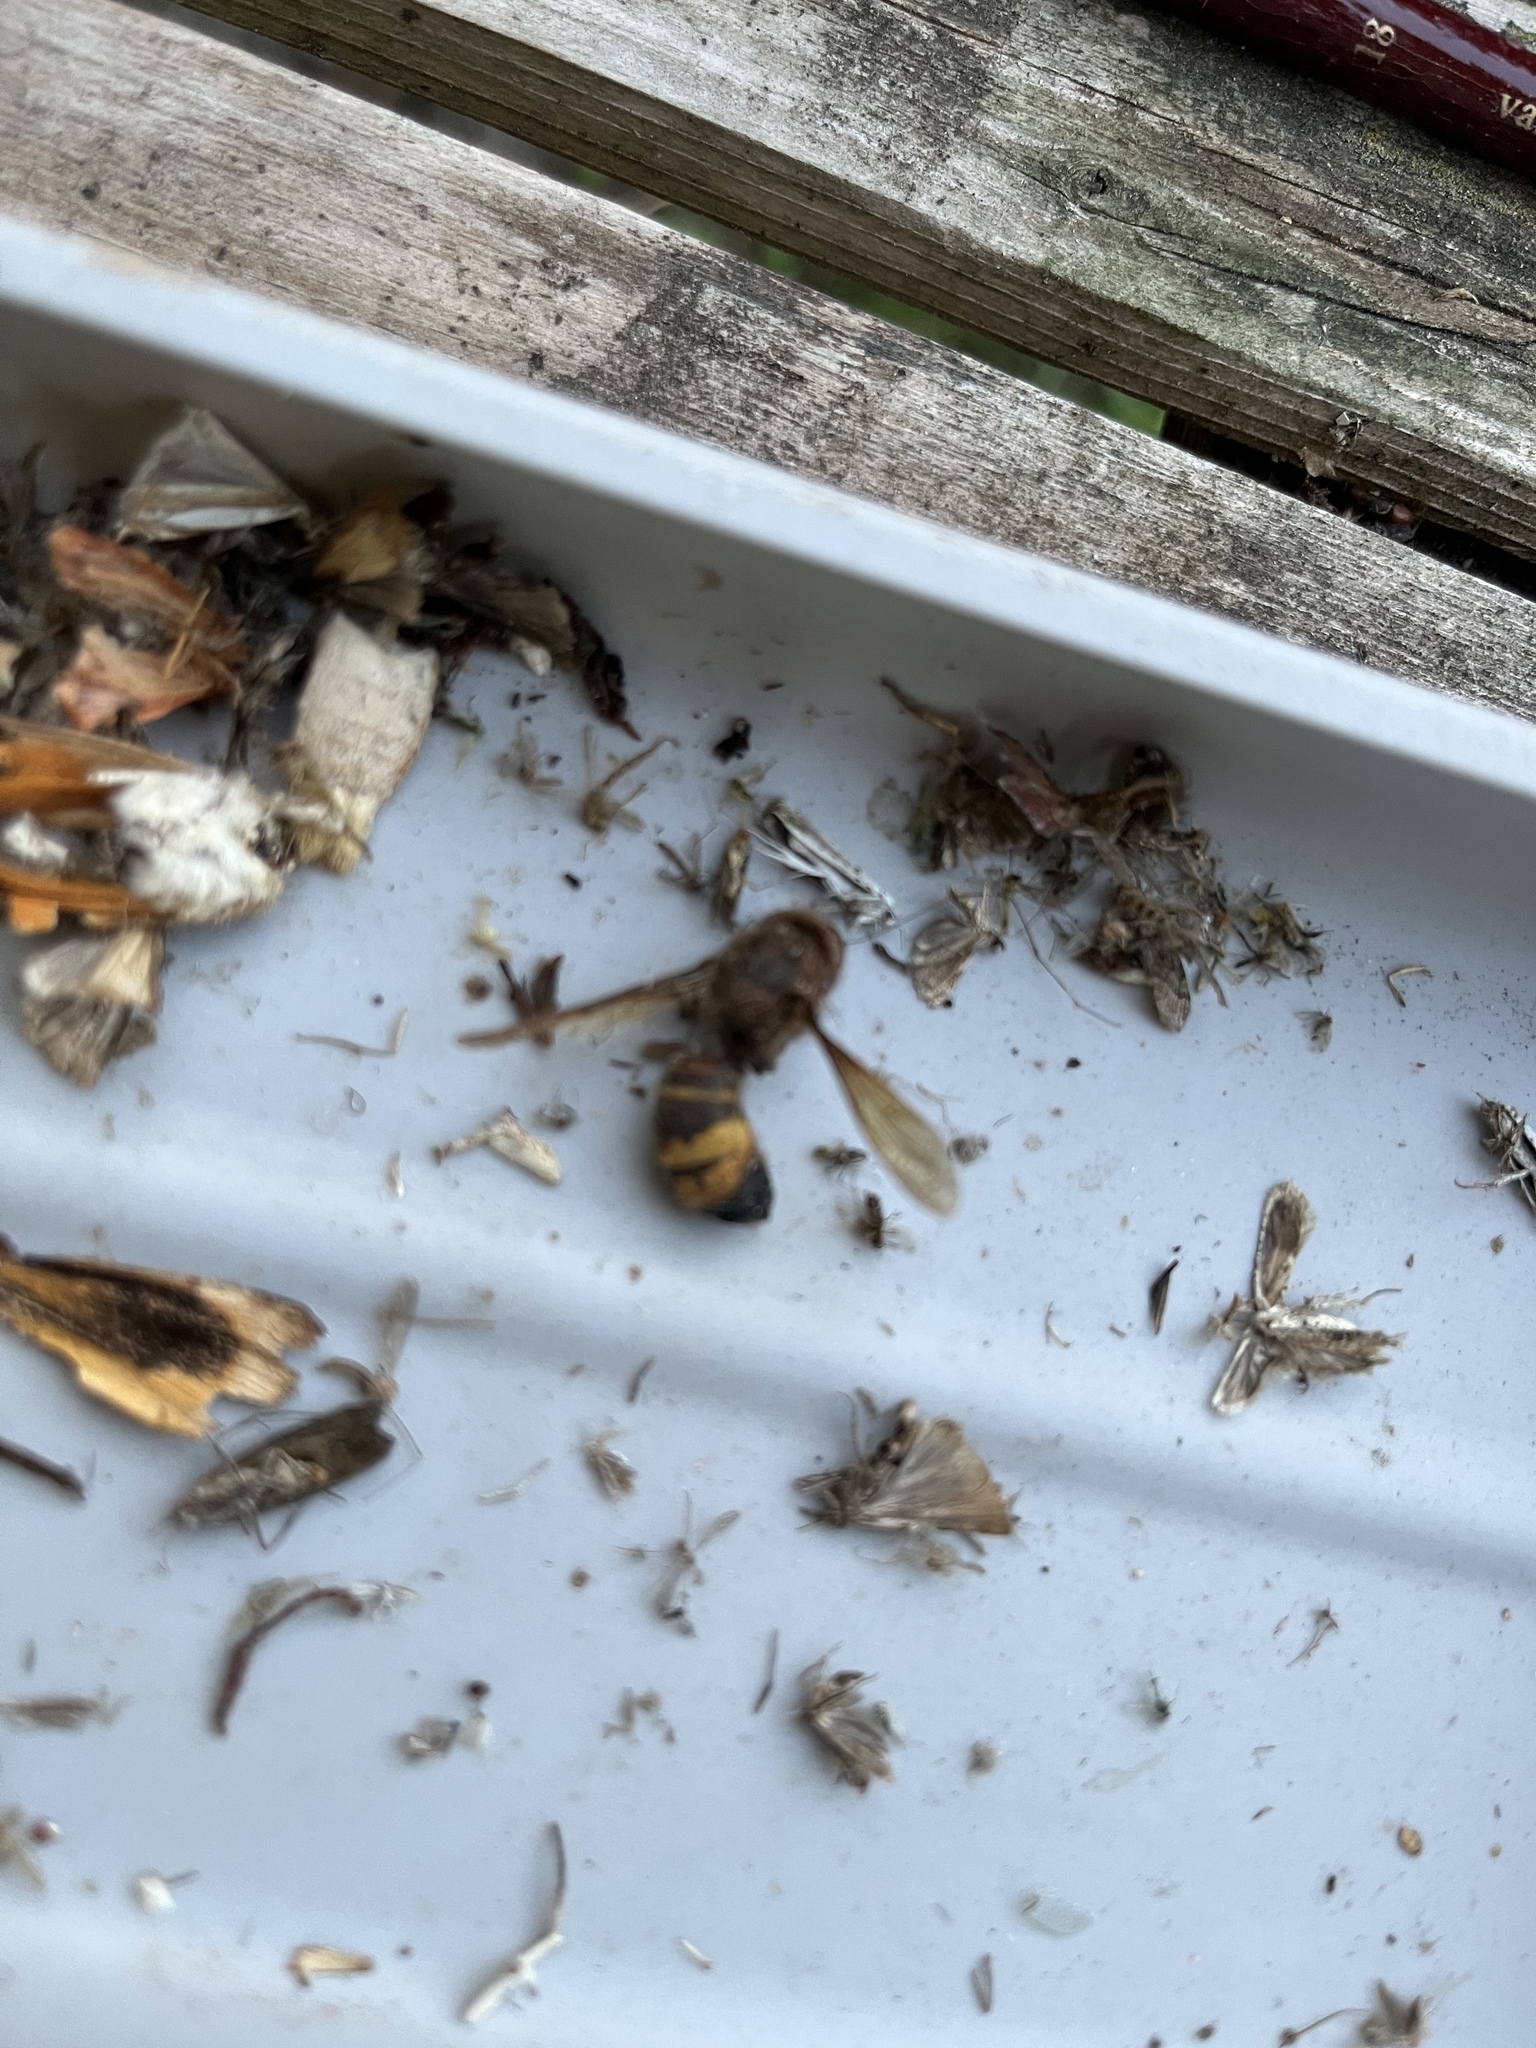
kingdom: Animalia
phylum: Arthropoda
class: Insecta
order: Hymenoptera
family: Vespidae
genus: Vespa
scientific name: Vespa crabro
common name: Hornet
